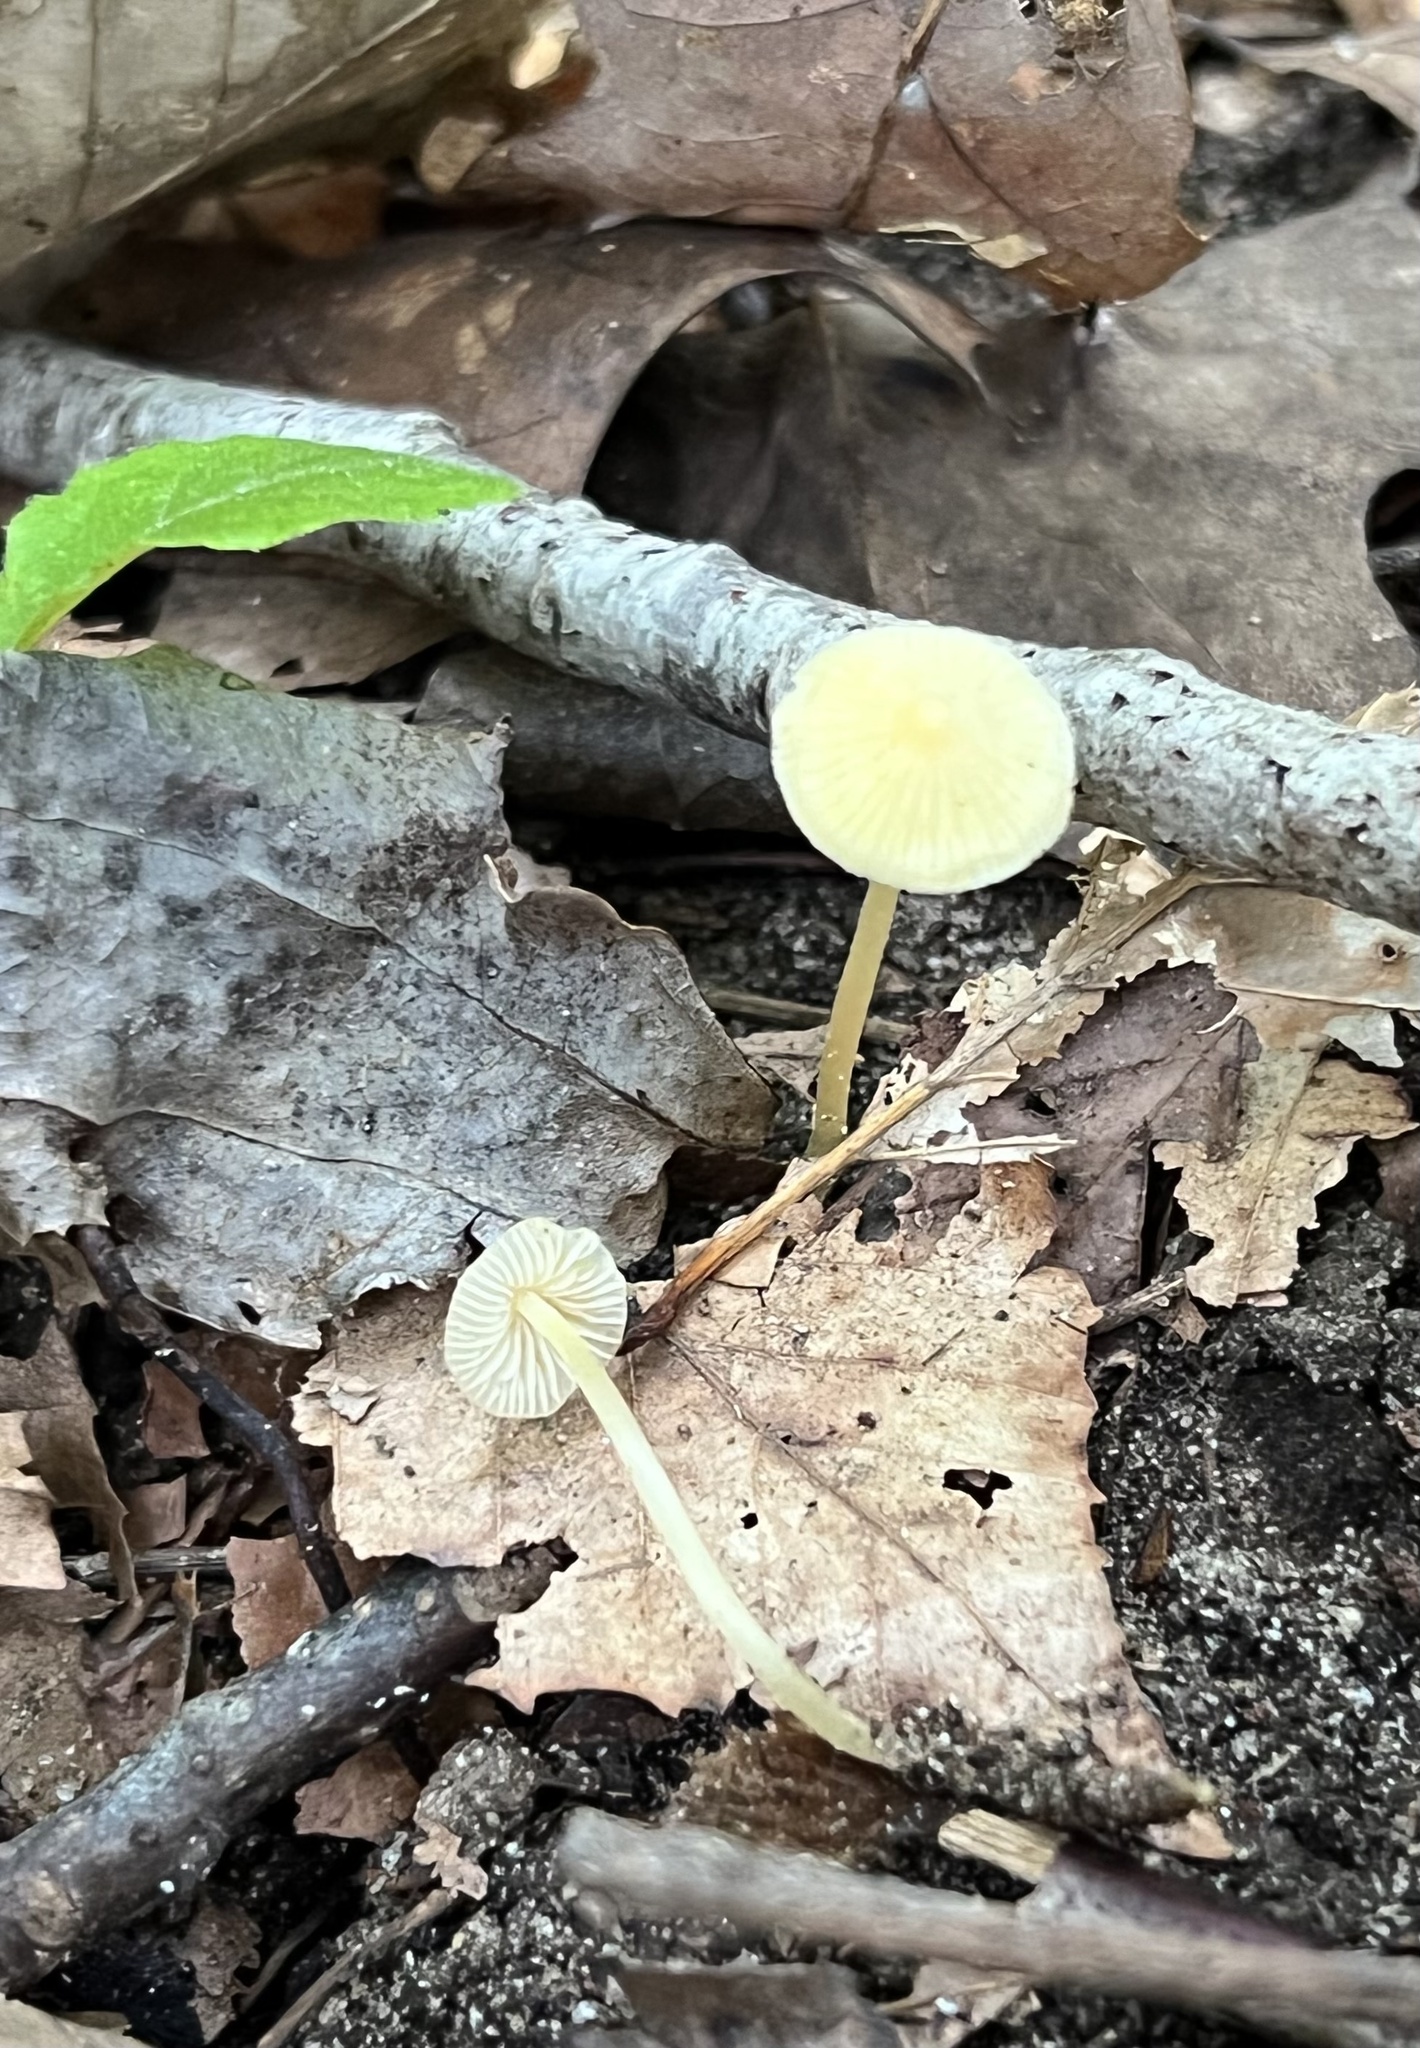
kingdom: Fungi
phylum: Basidiomycota
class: Agaricomycetes
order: Agaricales
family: Mycenaceae
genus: Mycena
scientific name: Mycena crocea
